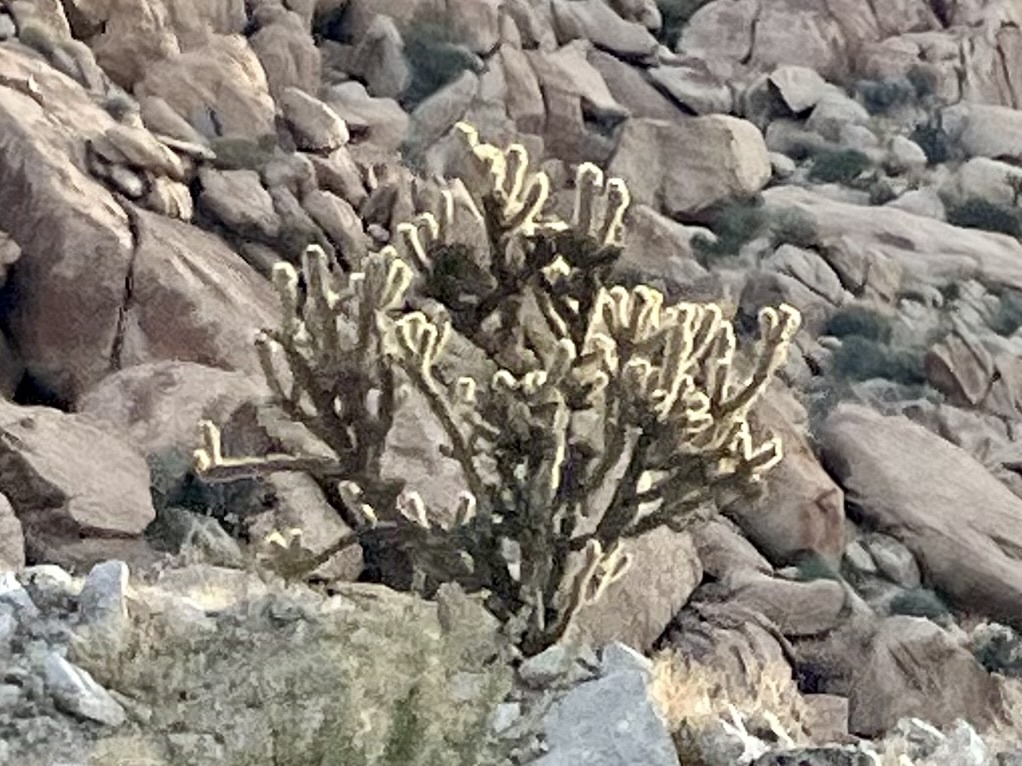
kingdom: Plantae
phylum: Tracheophyta
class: Magnoliopsida
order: Caryophyllales
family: Cactaceae
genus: Cylindropuntia
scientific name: Cylindropuntia ganderi
